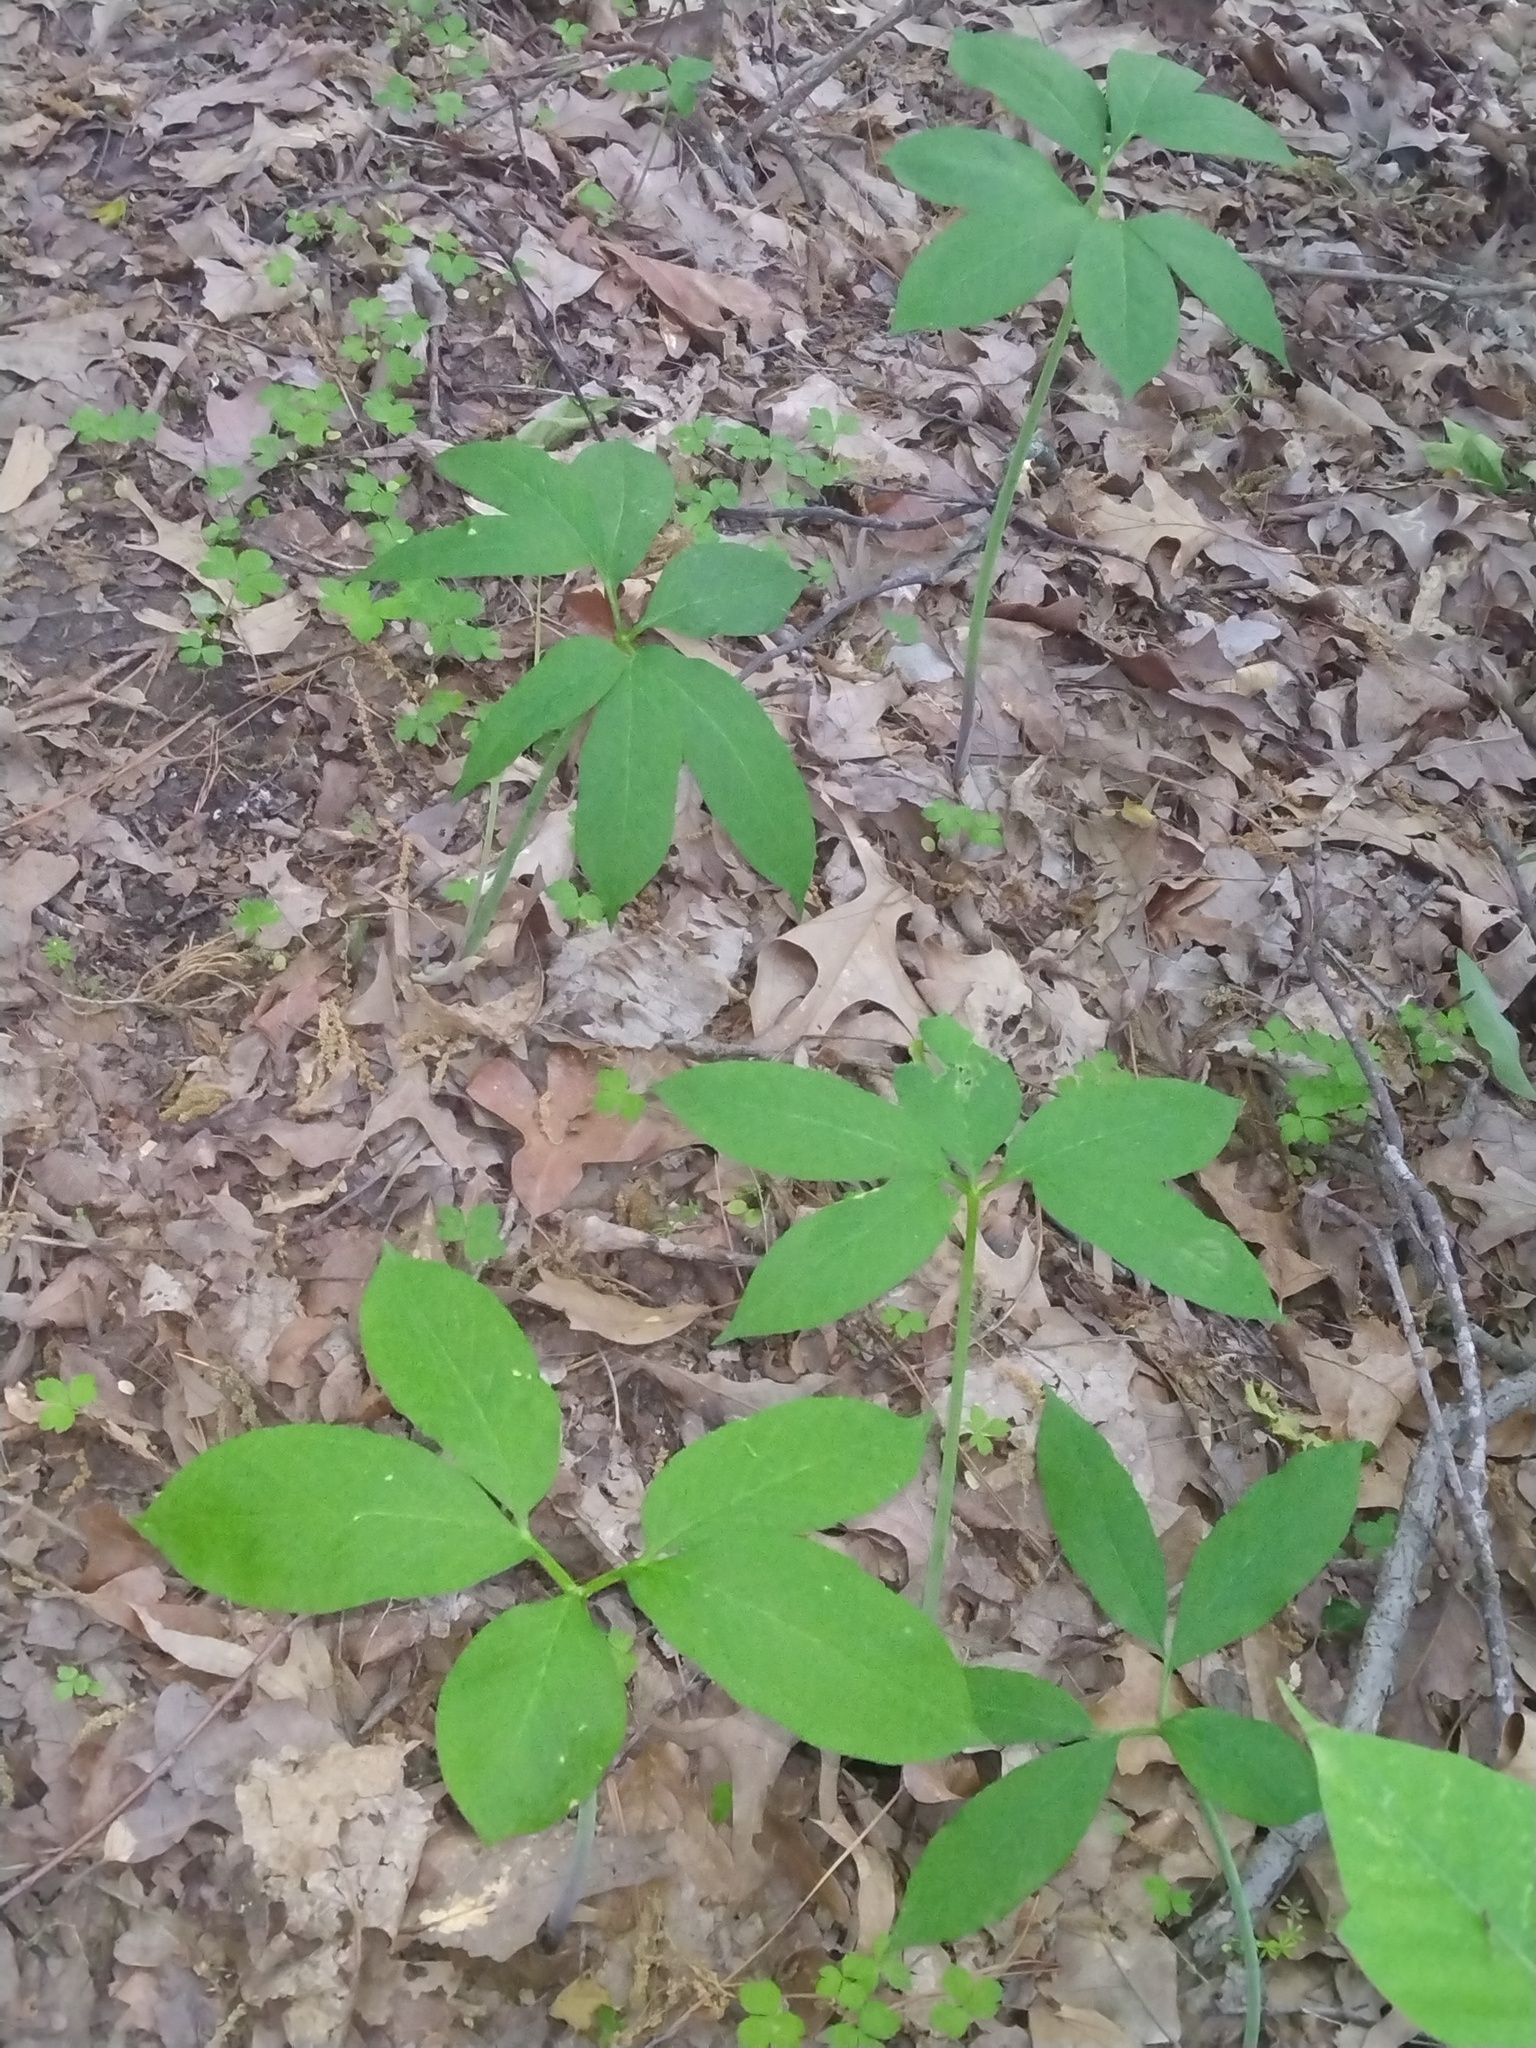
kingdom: Plantae
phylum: Tracheophyta
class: Liliopsida
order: Alismatales
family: Araceae
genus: Arisaema
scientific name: Arisaema dracontium
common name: Dragon-arum
